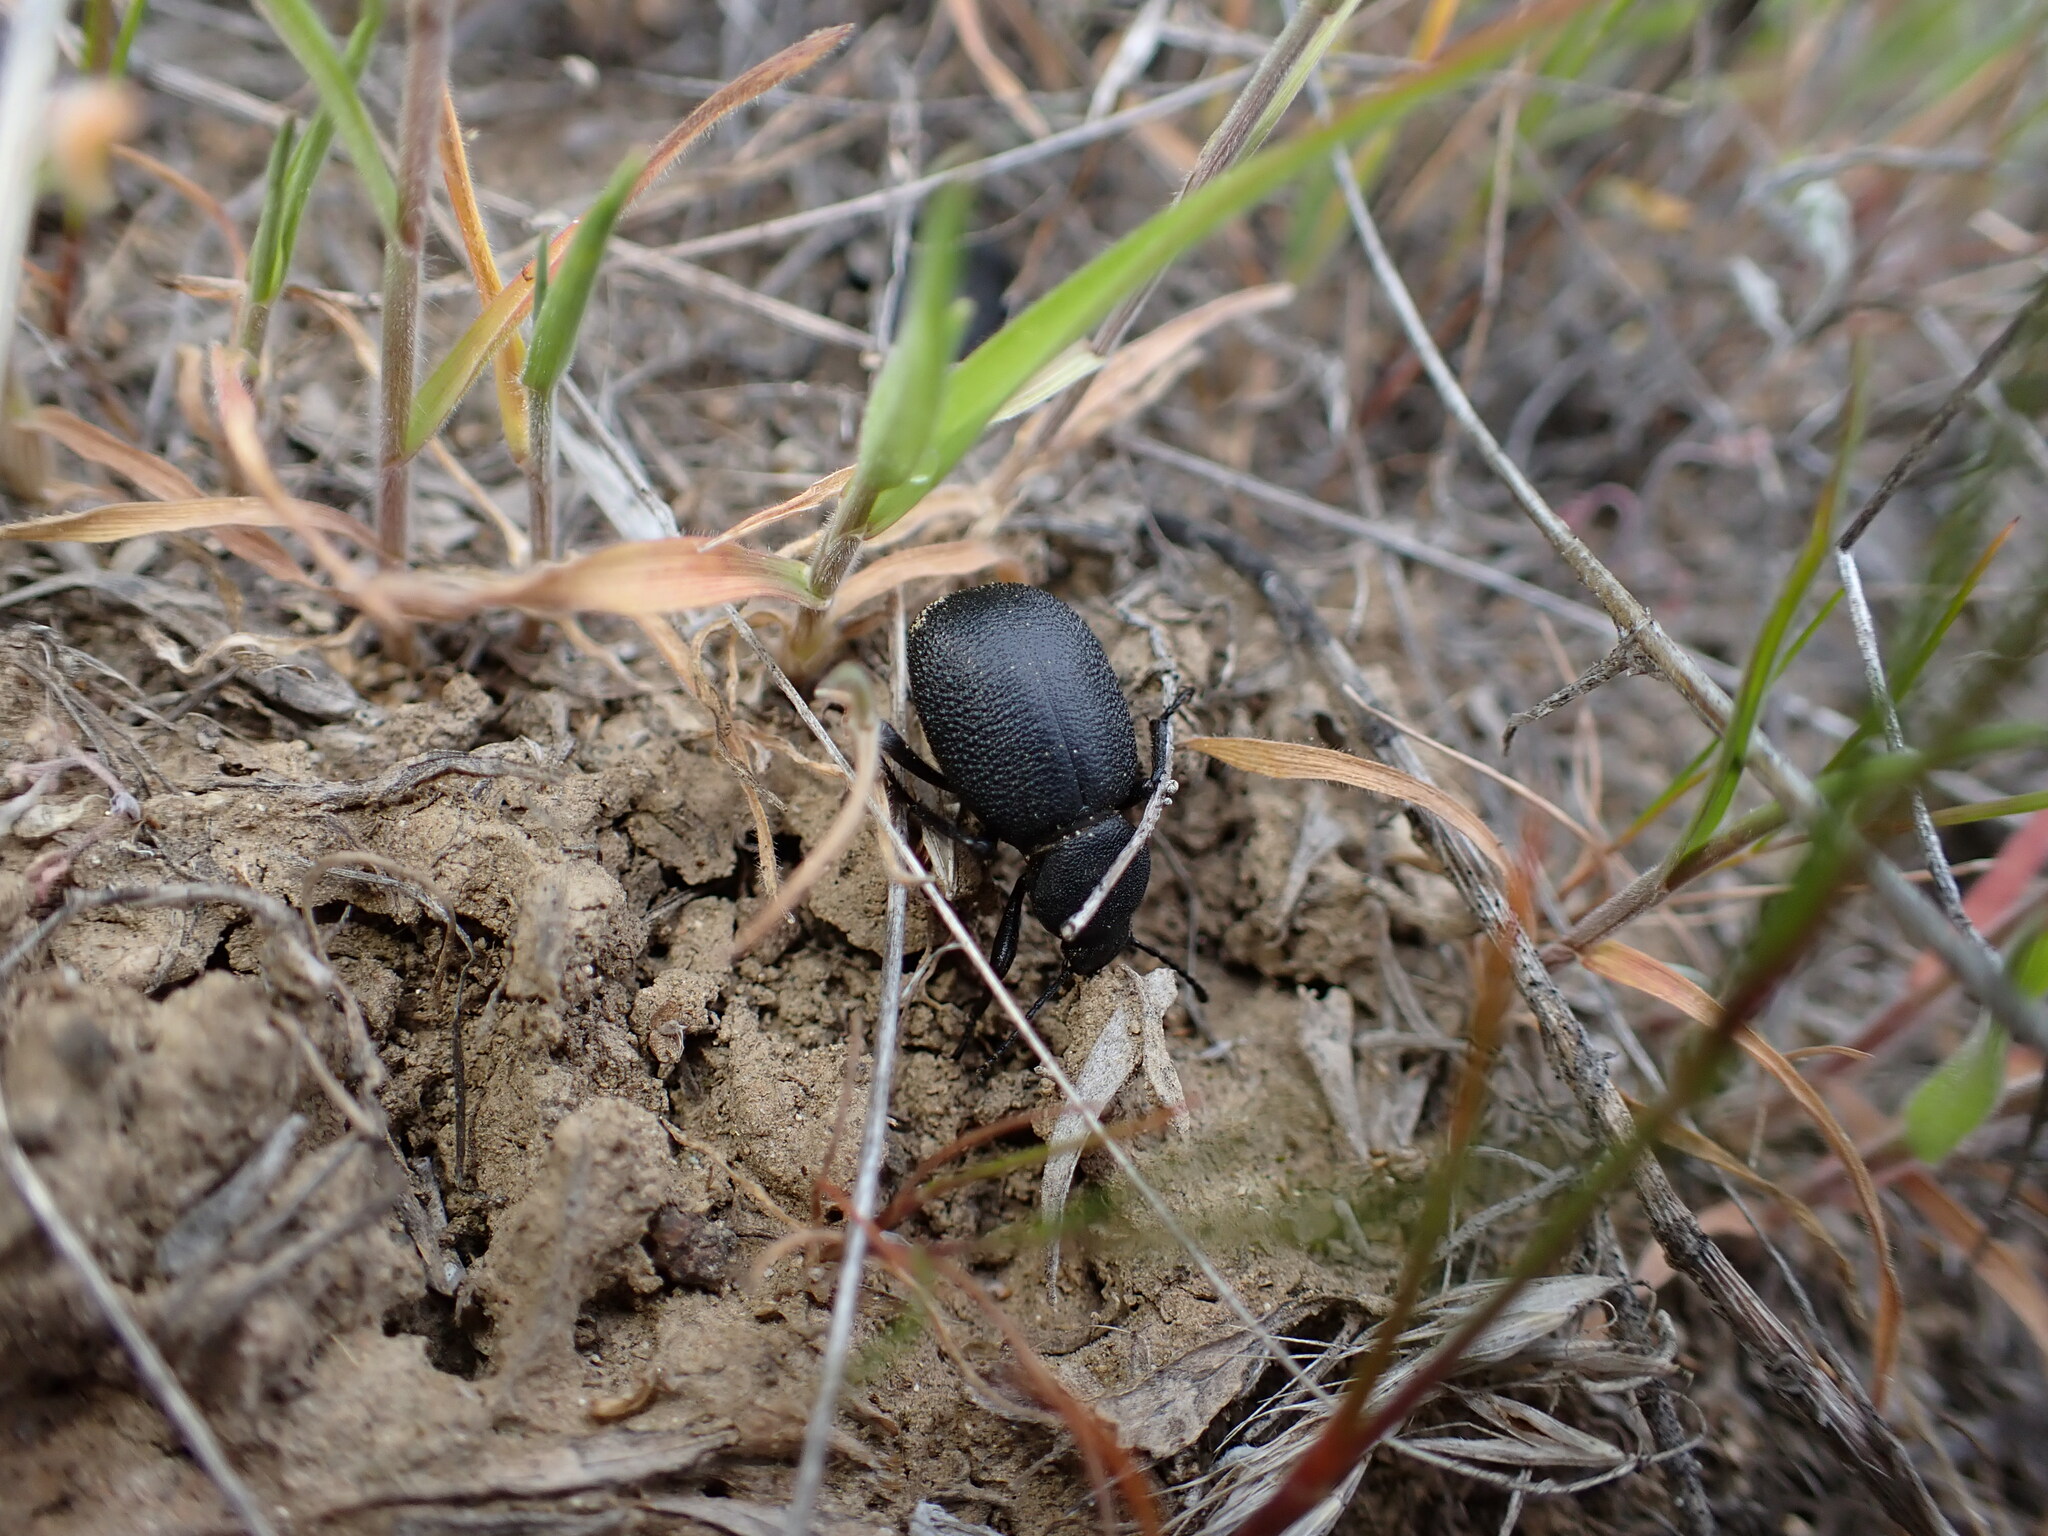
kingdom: Animalia
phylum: Arthropoda
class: Insecta
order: Coleoptera
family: Tenebrionidae
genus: Eleodes
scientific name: Eleodes novoverrucula
